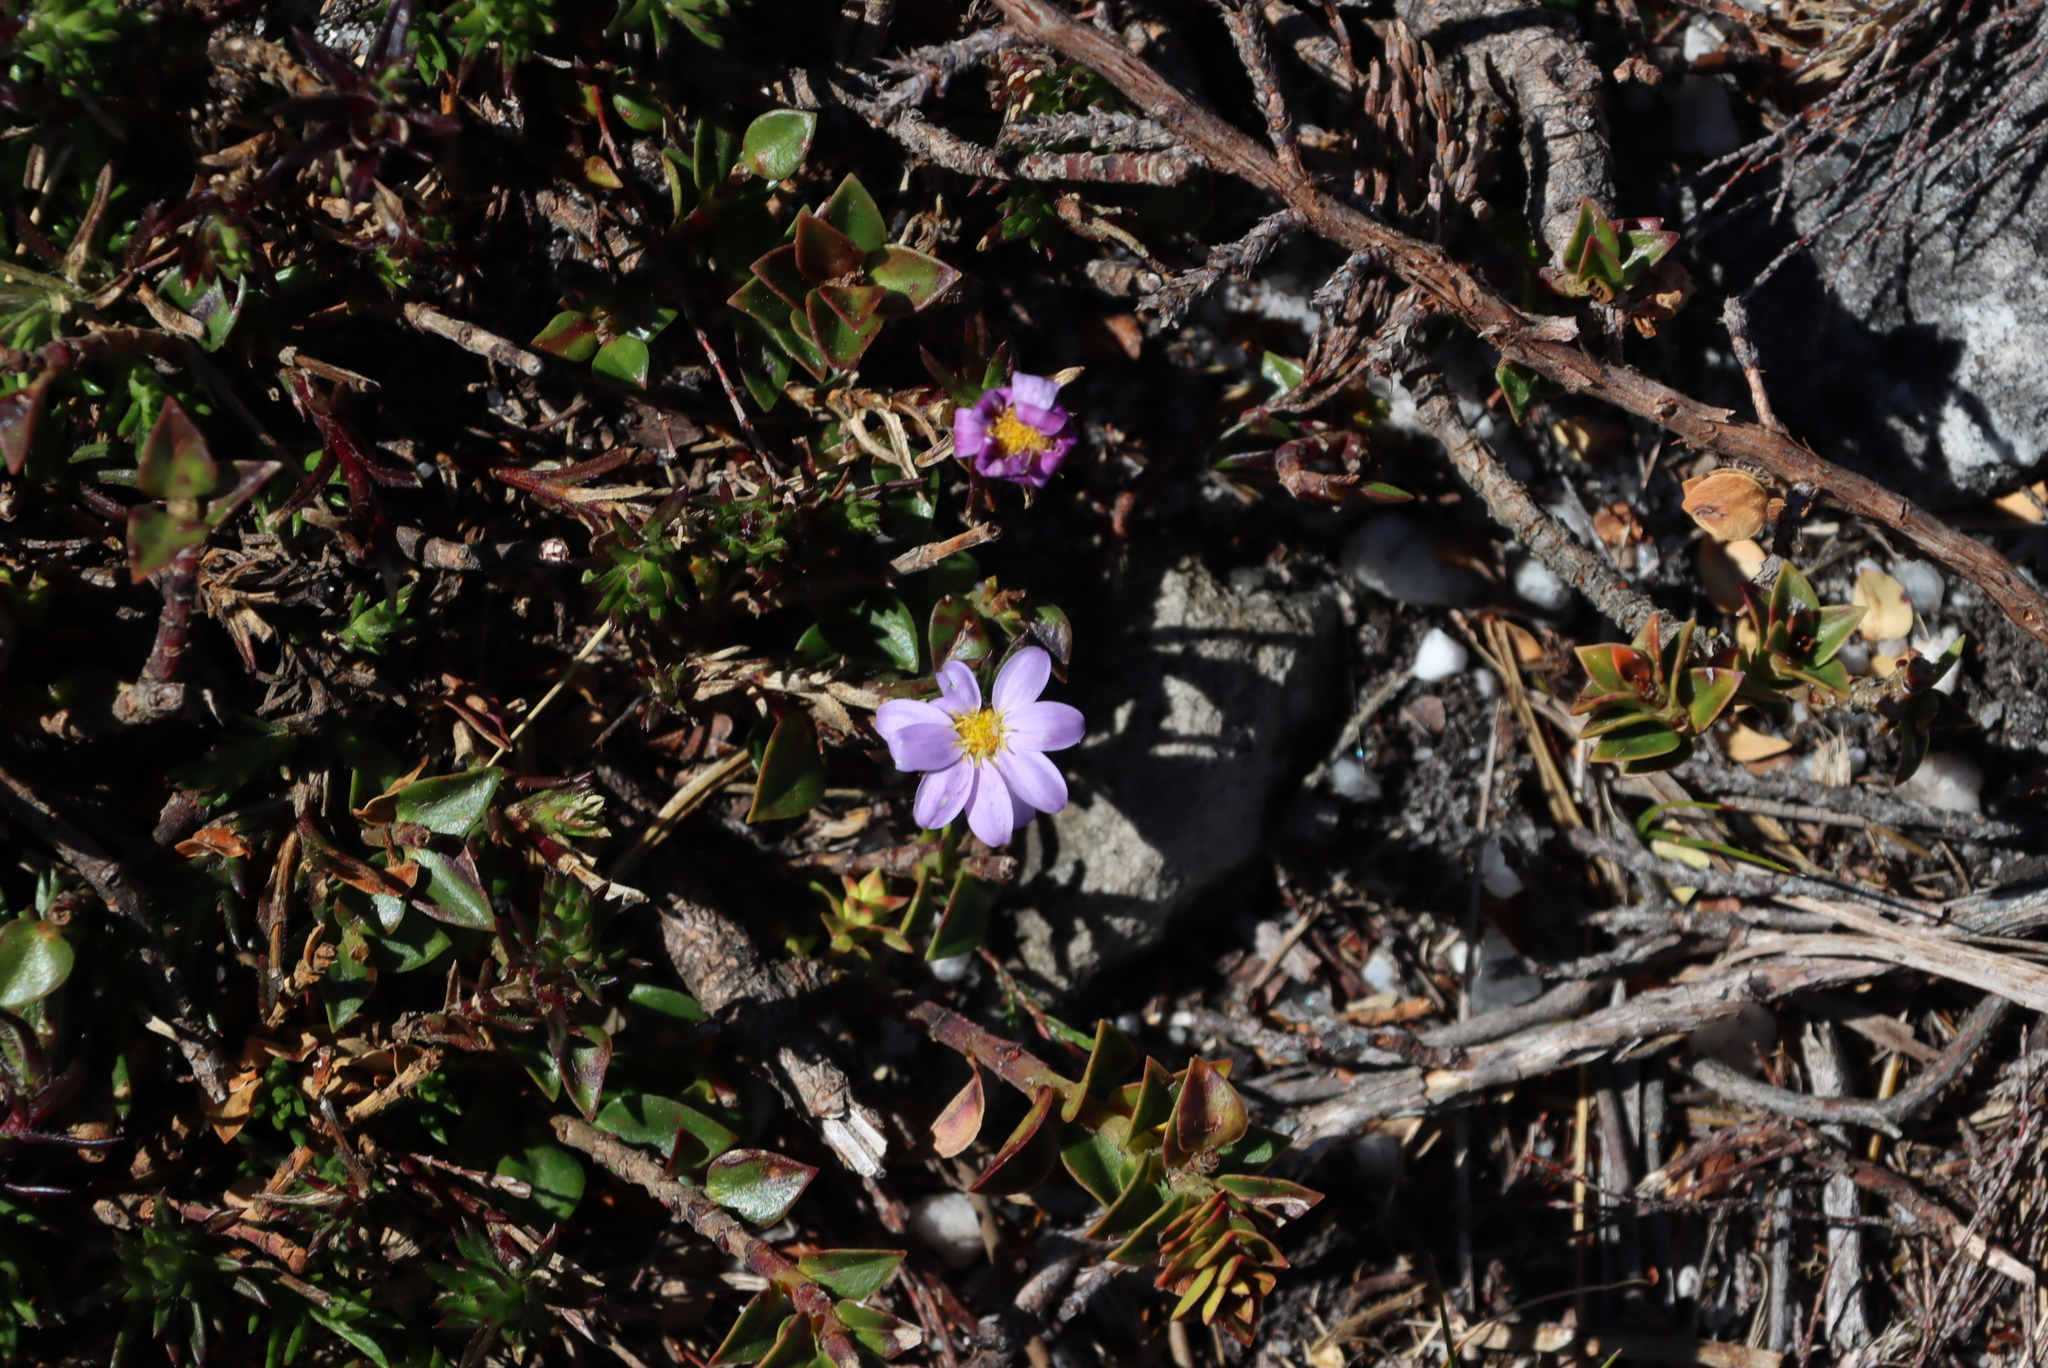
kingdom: Plantae
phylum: Tracheophyta
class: Magnoliopsida
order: Asterales
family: Asteraceae
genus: Zyrphelis
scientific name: Zyrphelis taxifolia
